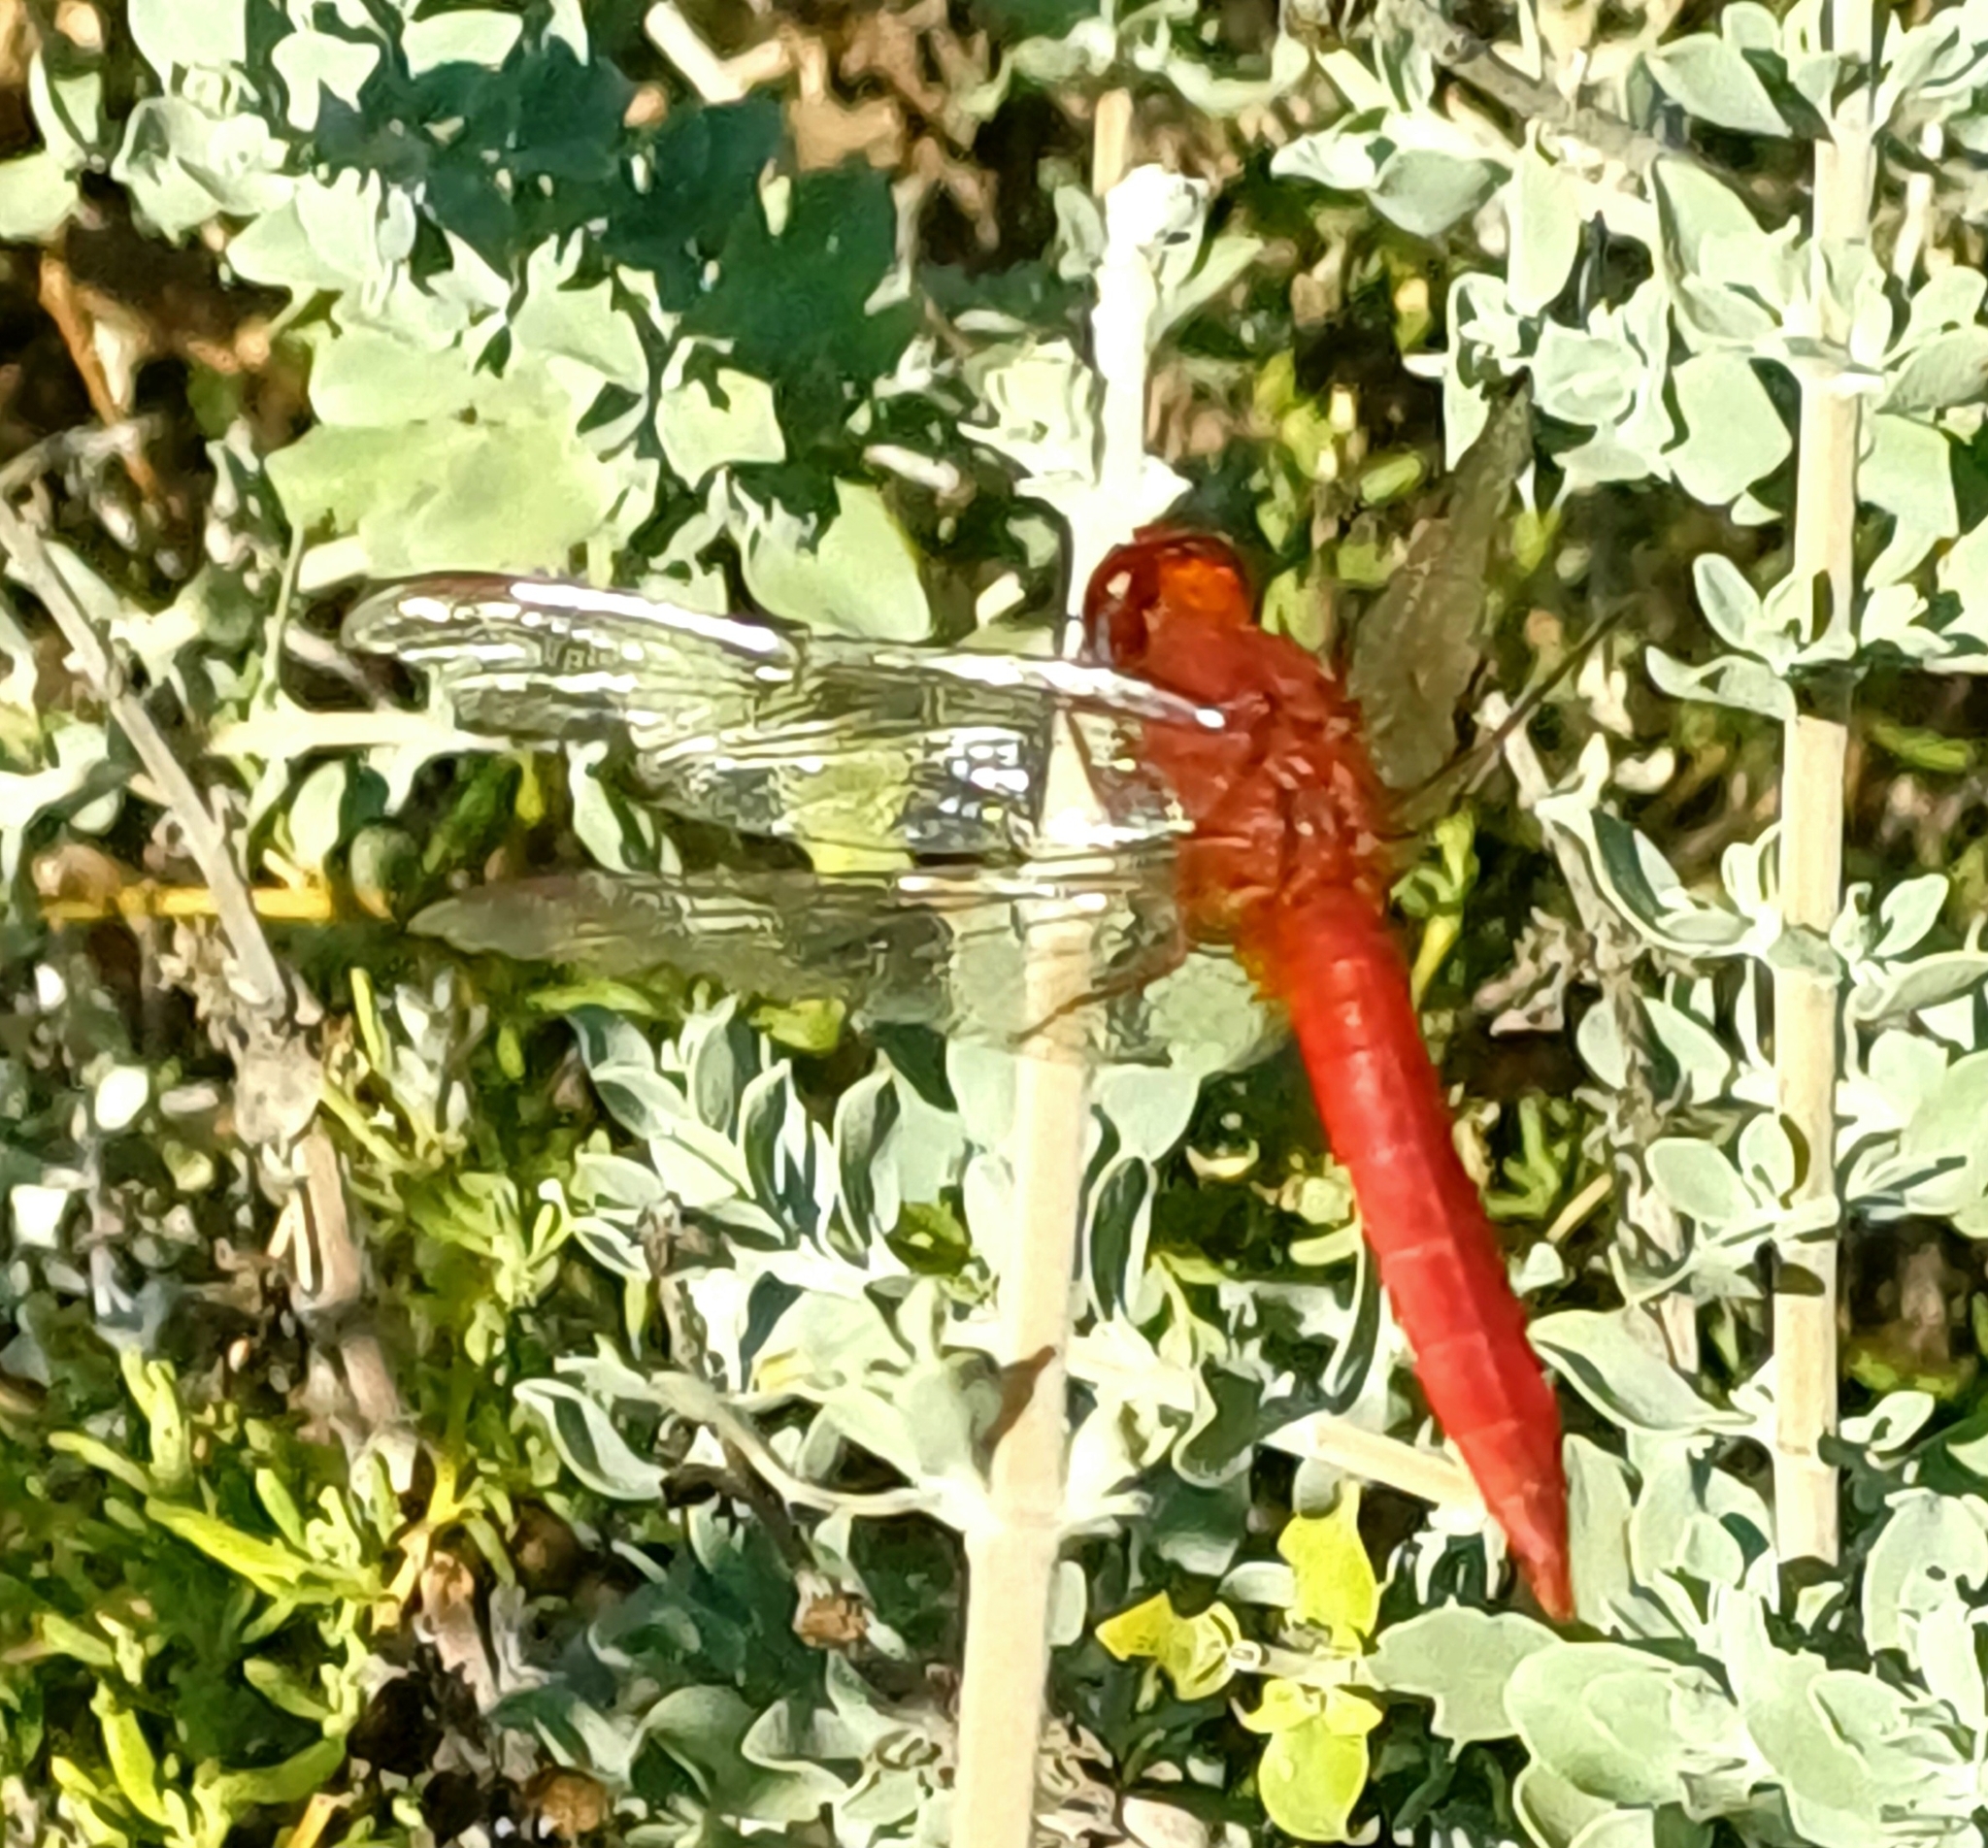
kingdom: Animalia
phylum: Arthropoda
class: Insecta
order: Odonata
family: Libellulidae
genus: Crocothemis
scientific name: Crocothemis erythraea
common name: Scarlet dragonfly
